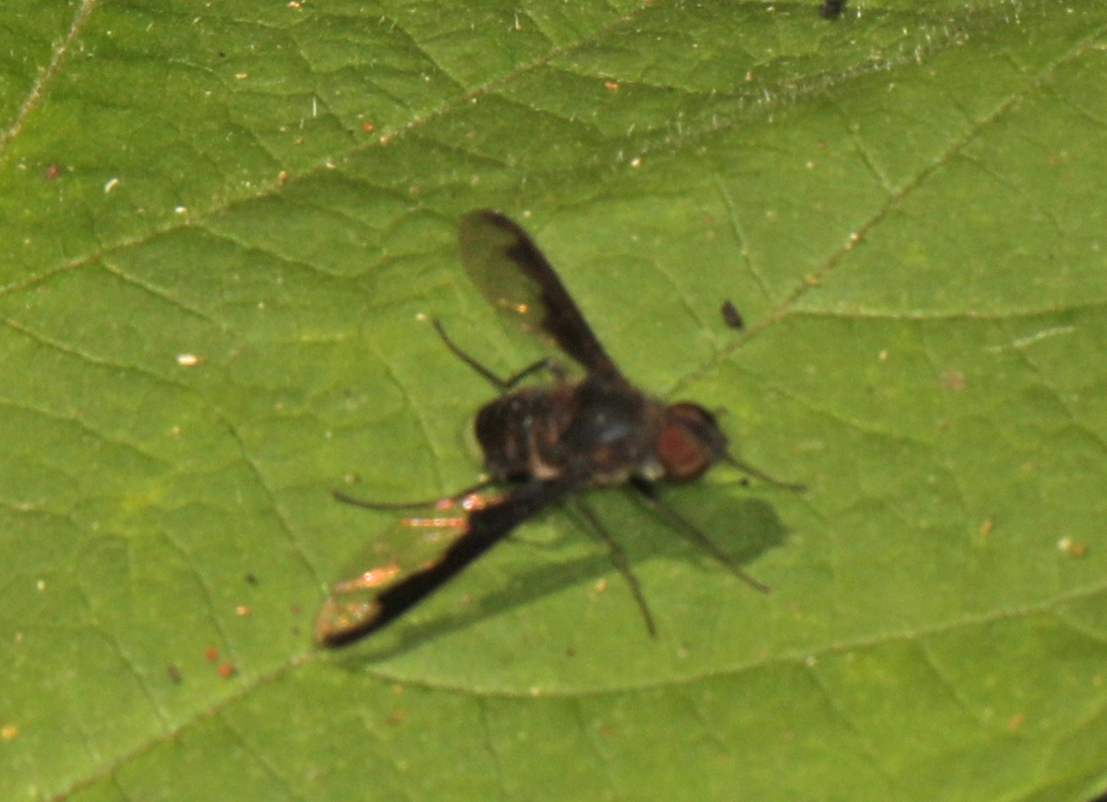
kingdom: Animalia
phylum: Arthropoda
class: Insecta
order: Diptera
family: Bombyliidae
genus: Anthrax
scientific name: Anthrax argyropygus
